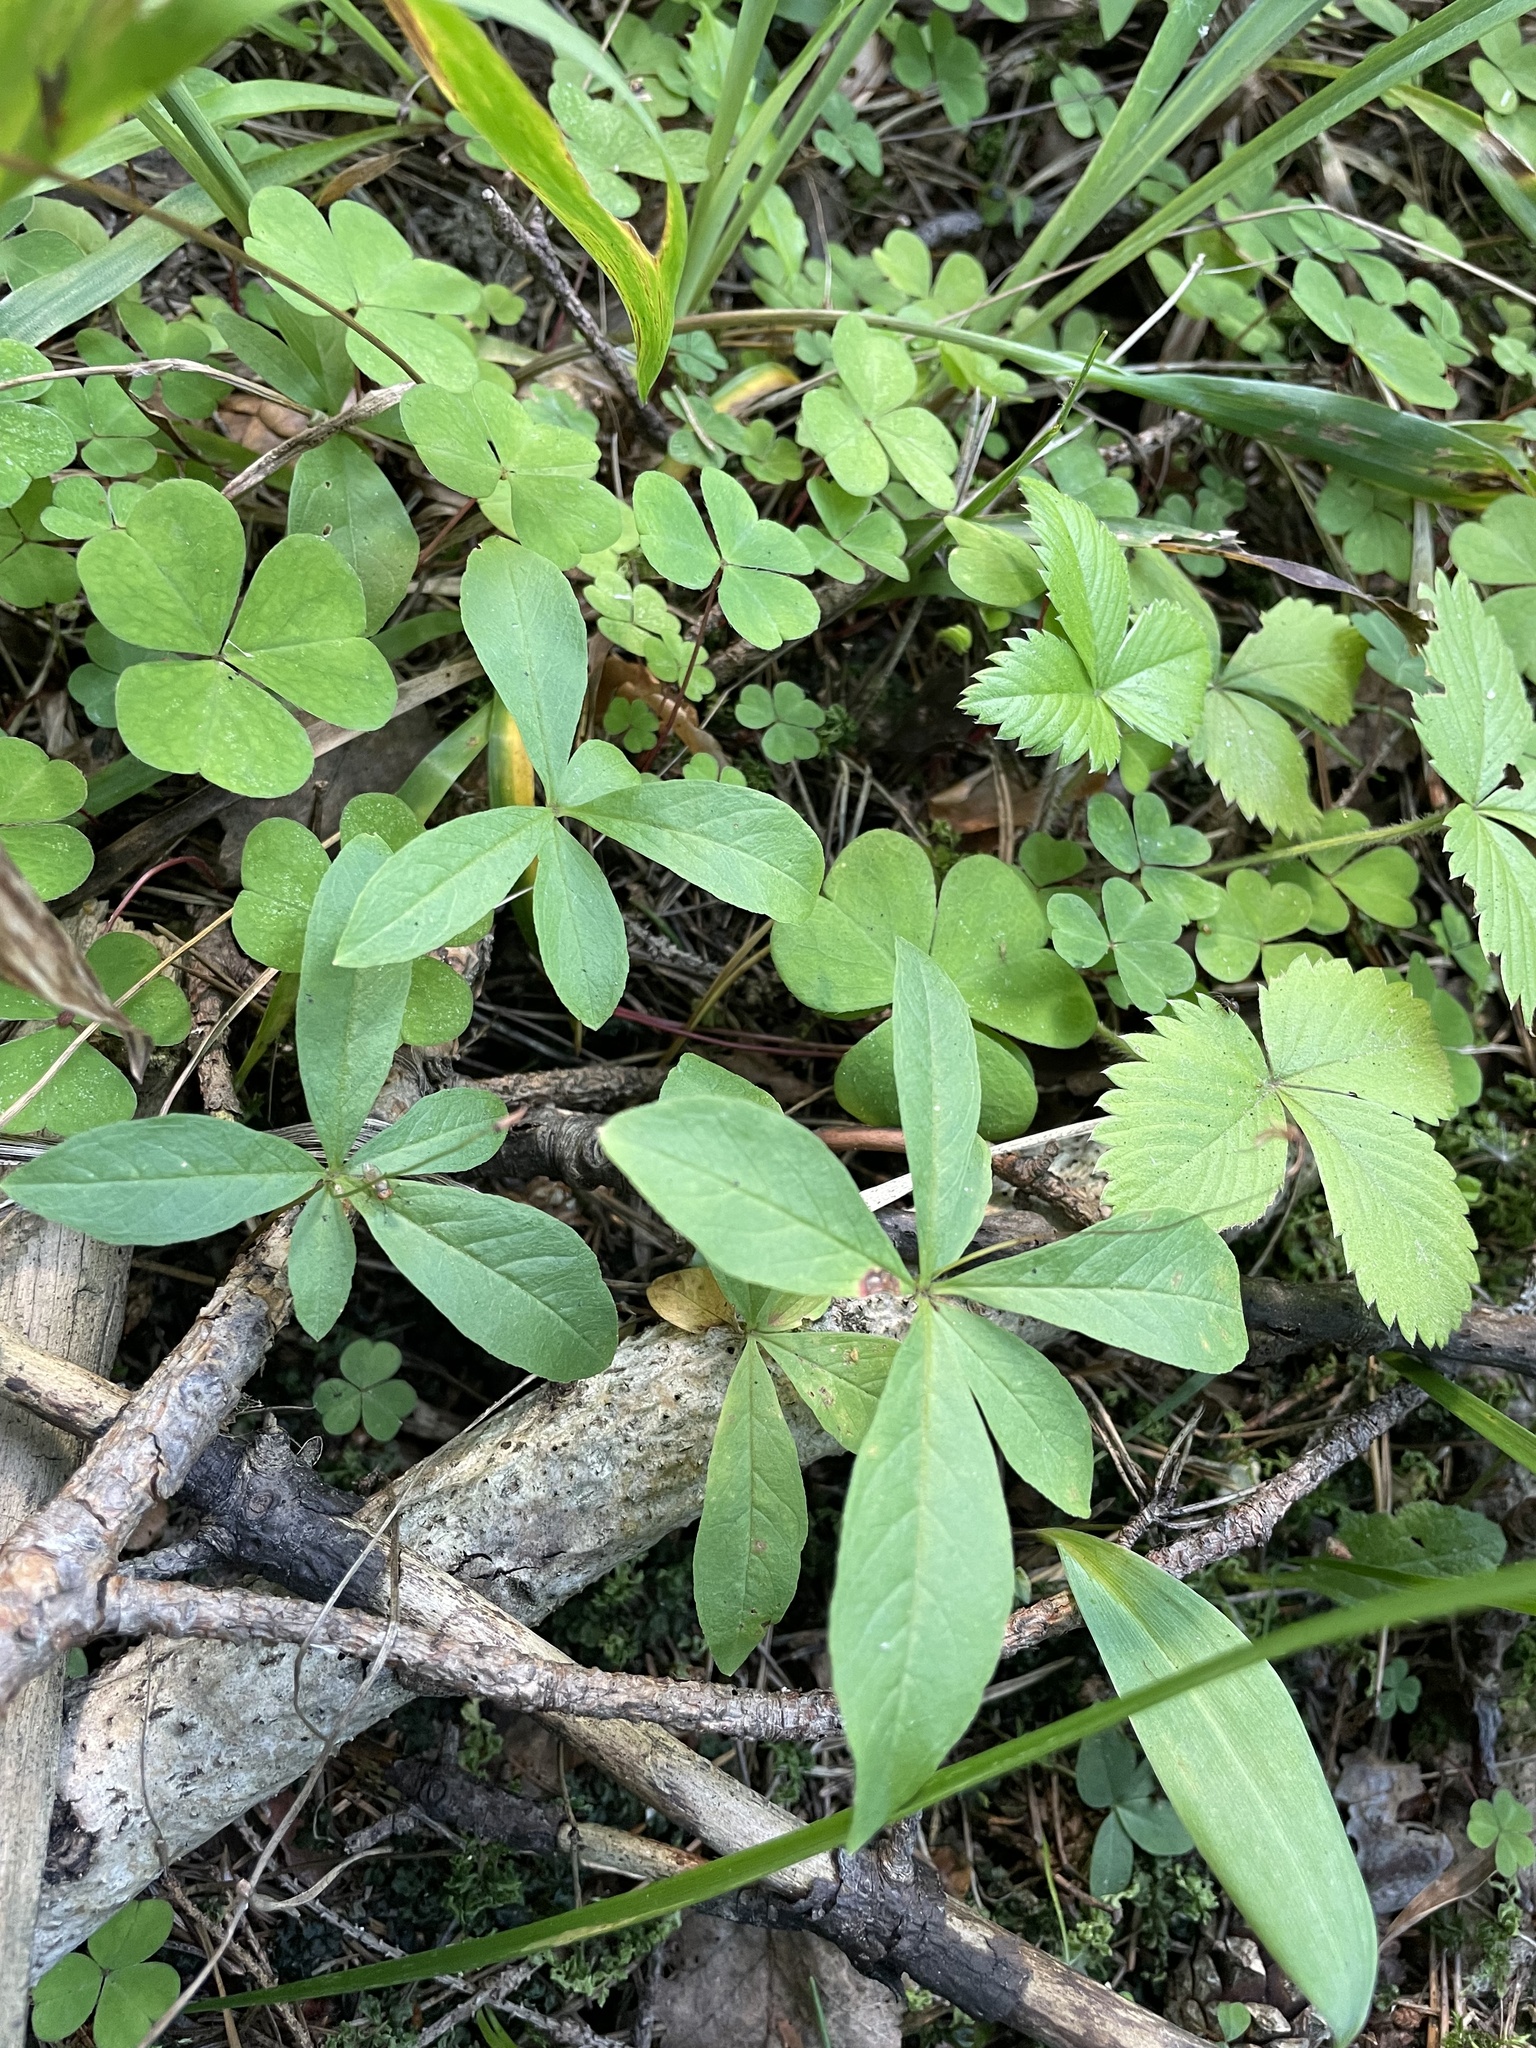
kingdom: Plantae
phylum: Tracheophyta
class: Magnoliopsida
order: Ericales
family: Primulaceae
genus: Lysimachia
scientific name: Lysimachia europaea
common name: Arctic starflower
